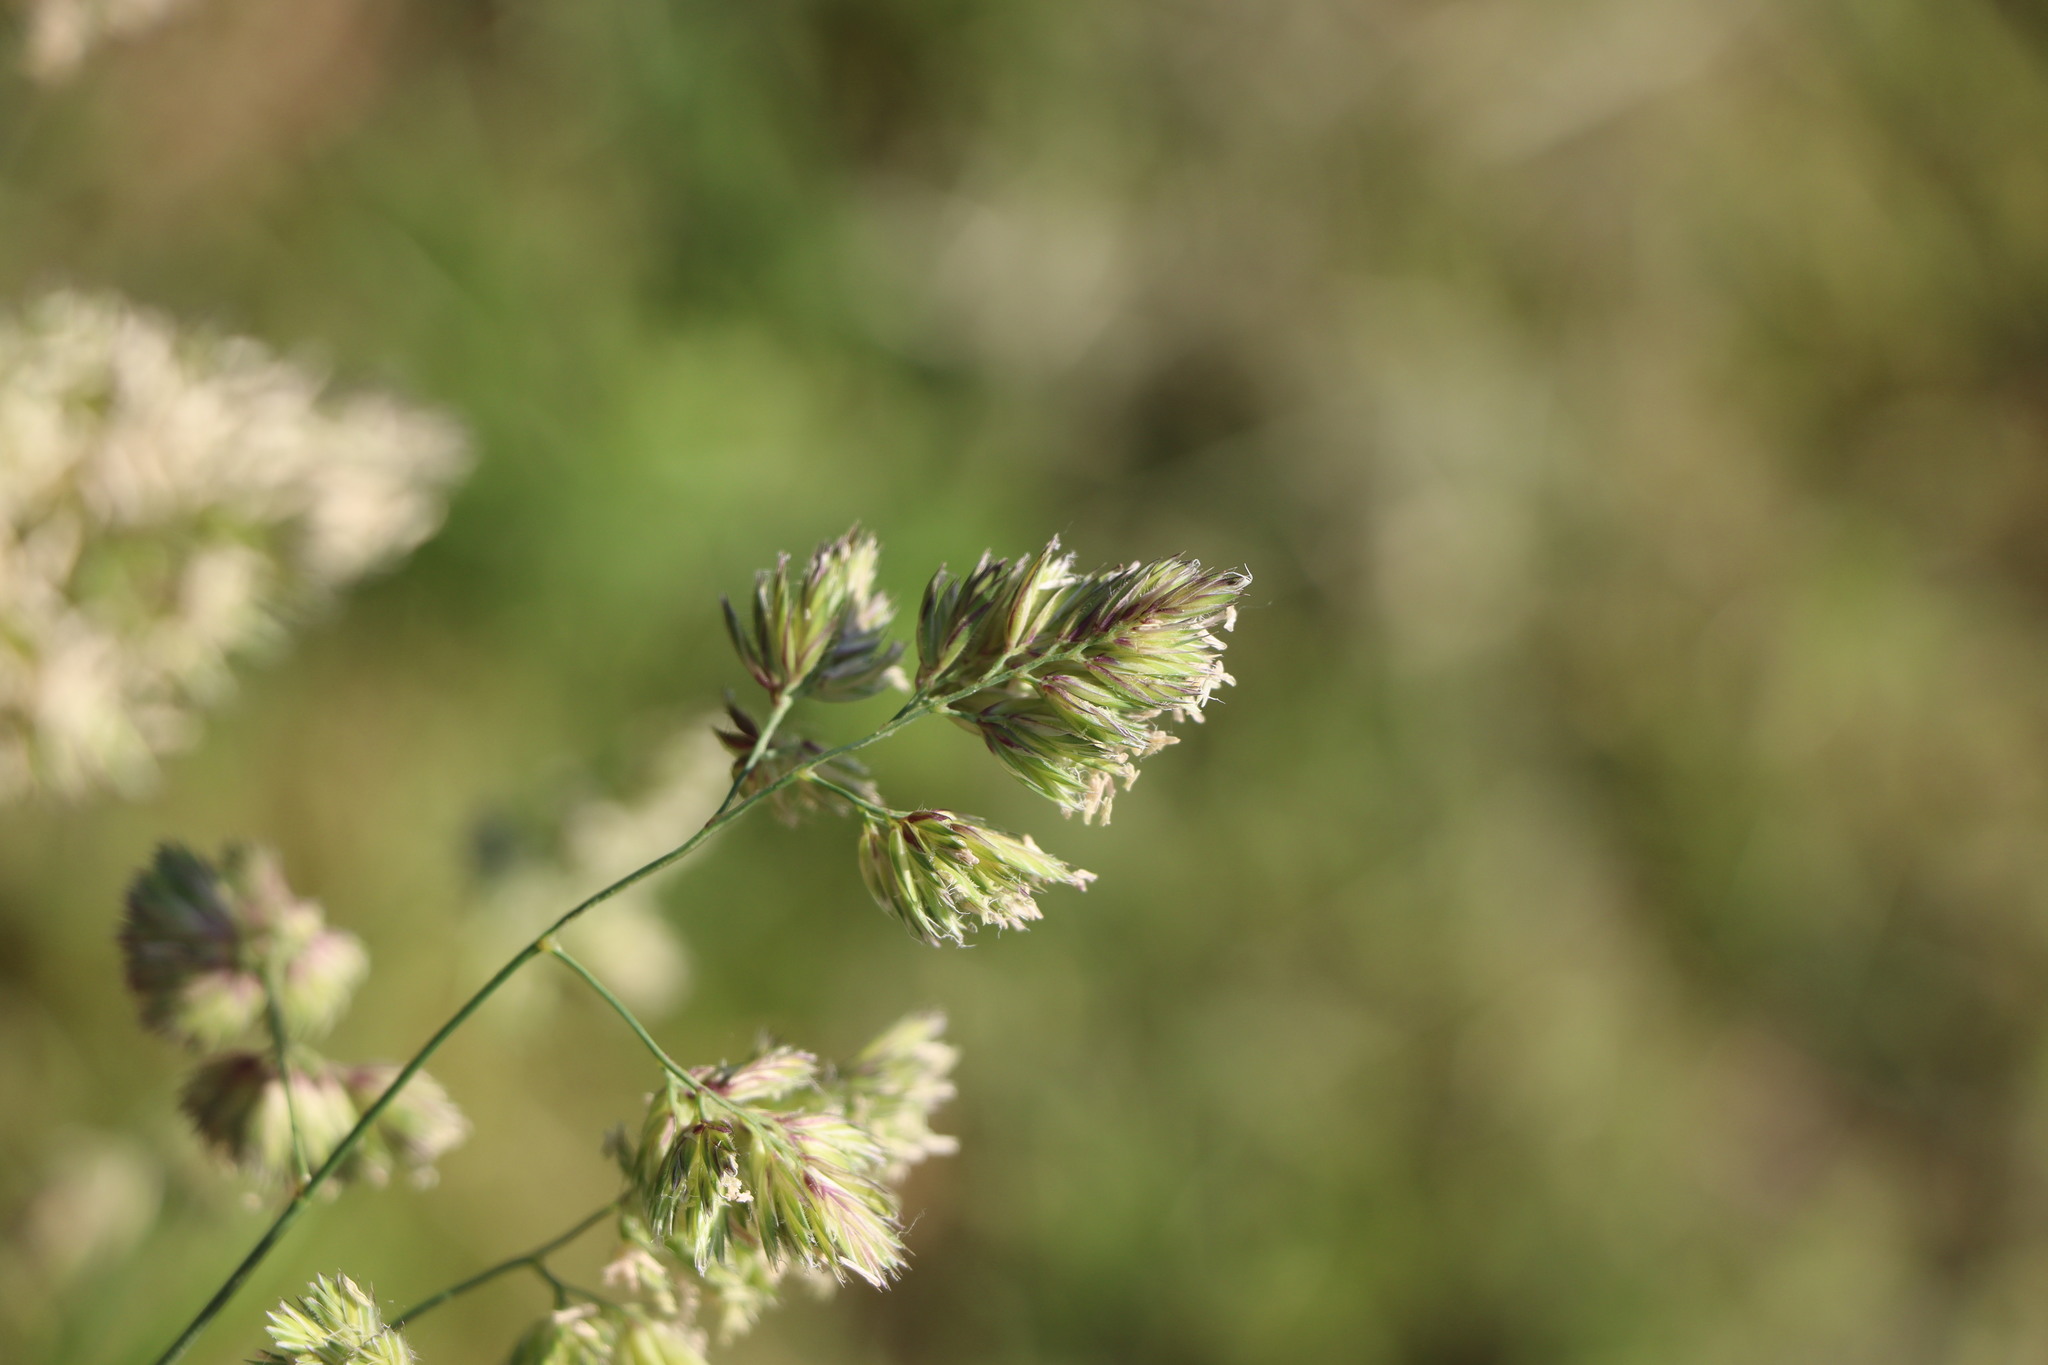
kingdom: Plantae
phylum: Tracheophyta
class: Liliopsida
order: Poales
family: Poaceae
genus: Dactylis
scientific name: Dactylis glomerata
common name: Orchardgrass
